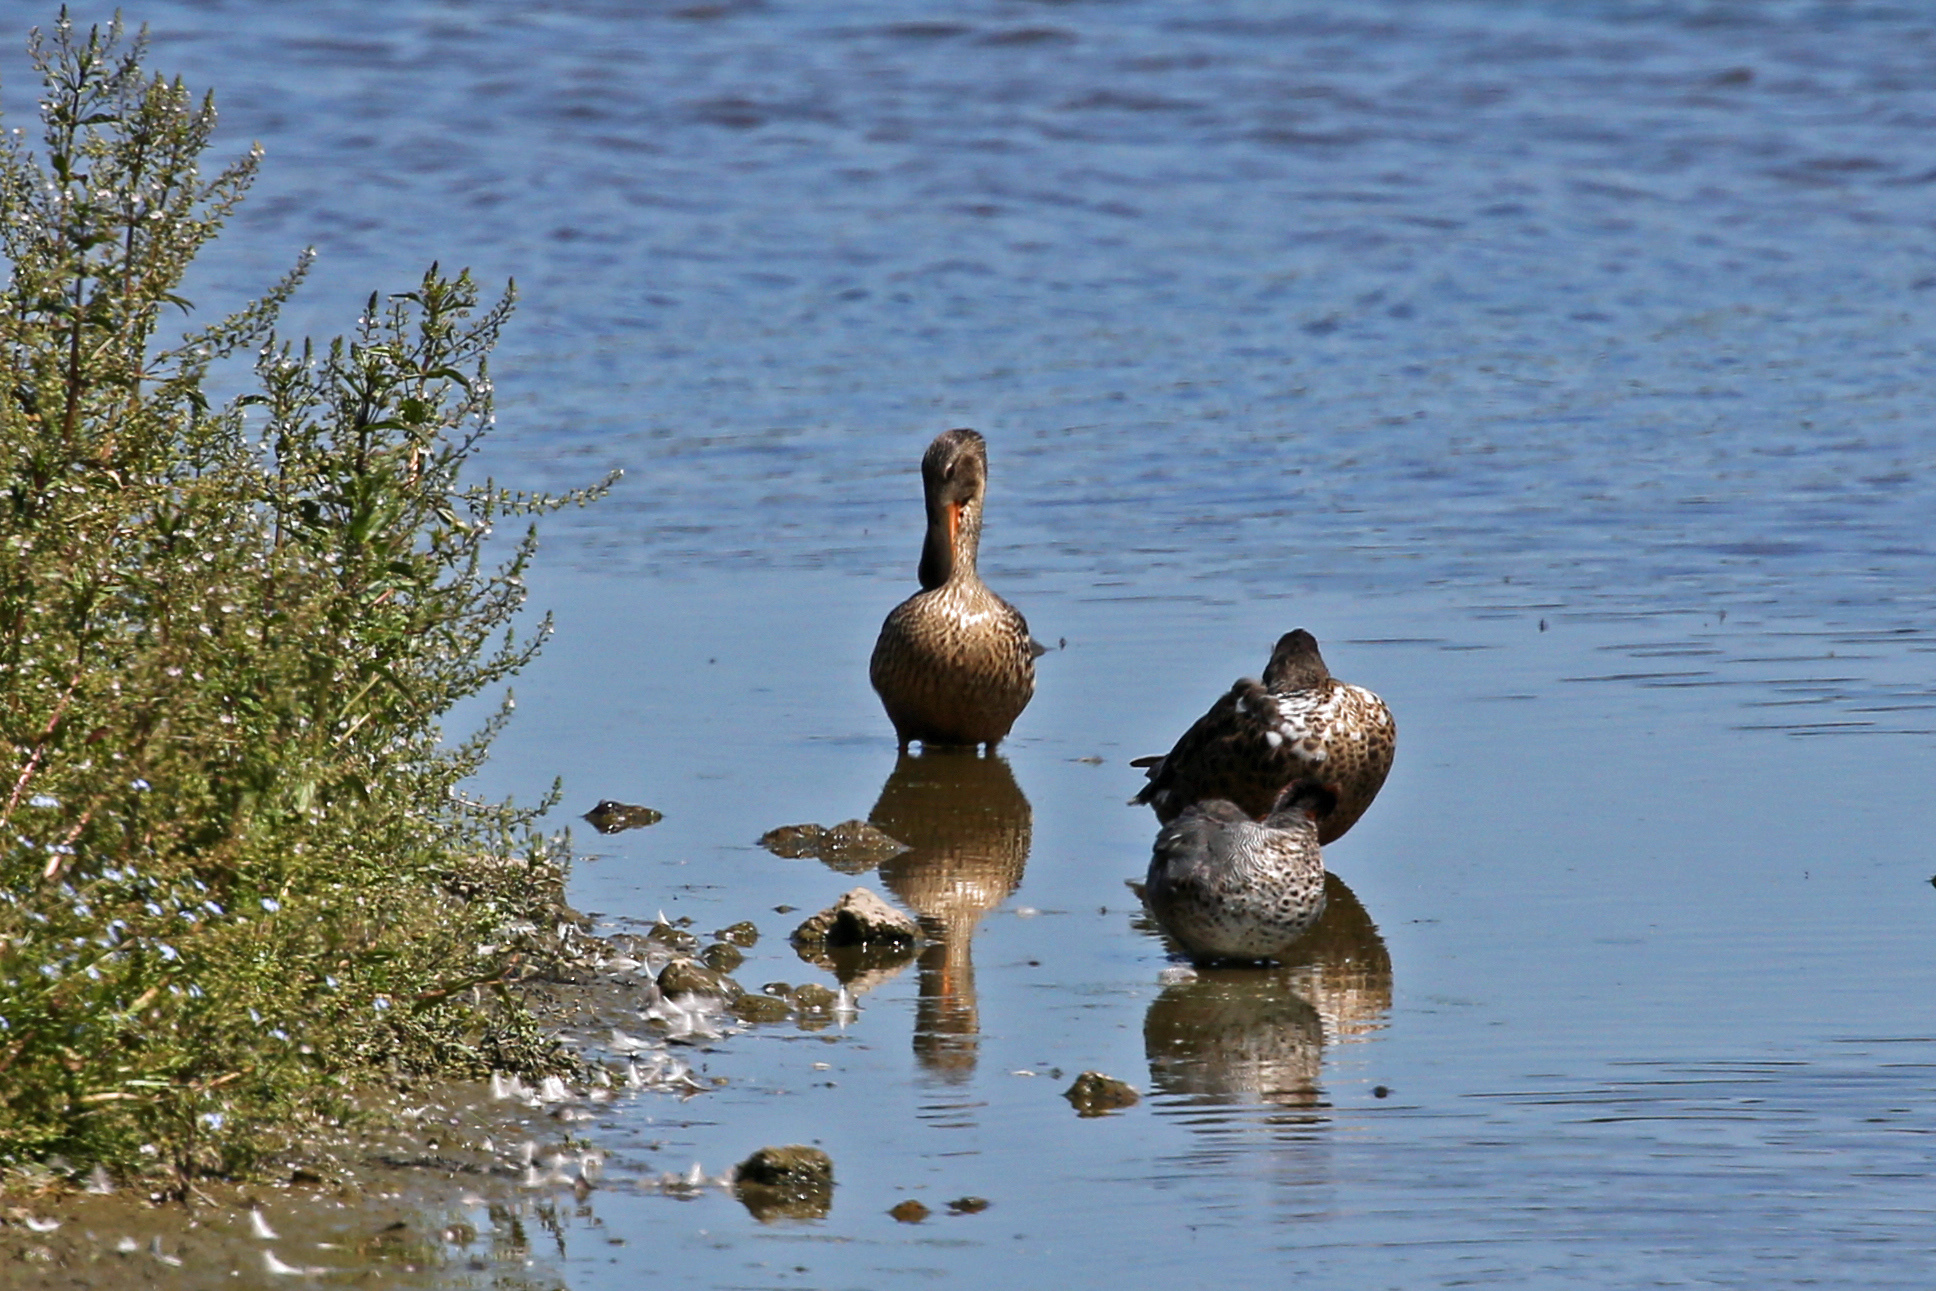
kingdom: Animalia
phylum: Chordata
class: Aves
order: Anseriformes
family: Anatidae
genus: Spatula
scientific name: Spatula clypeata
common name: Northern shoveler
